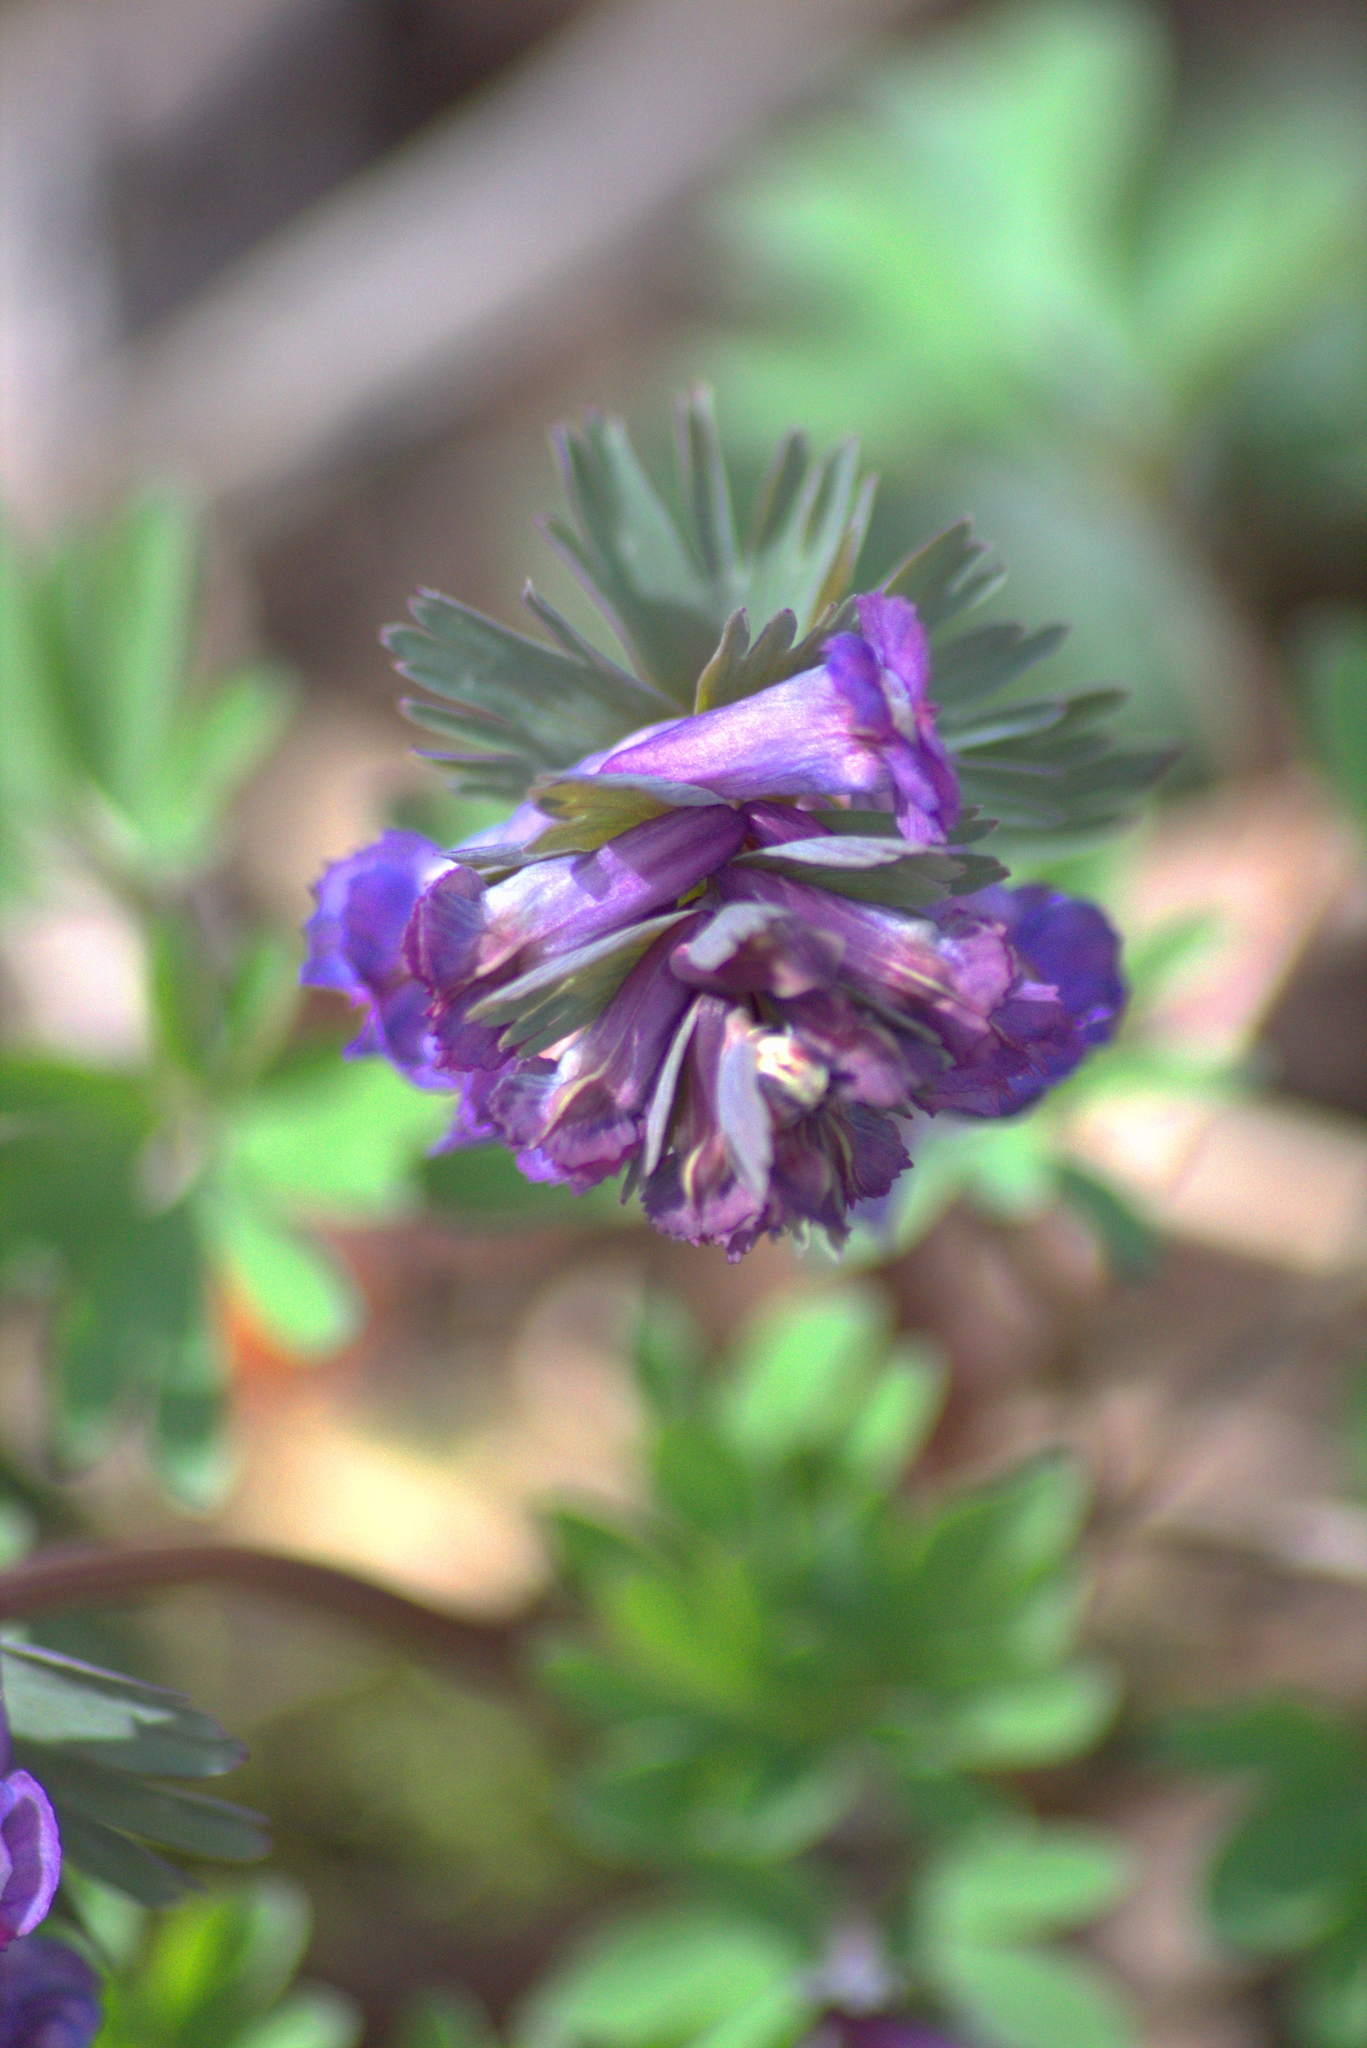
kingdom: Plantae
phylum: Tracheophyta
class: Magnoliopsida
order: Ranunculales
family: Papaveraceae
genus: Corydalis
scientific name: Corydalis solida
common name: Bird-in-a-bush
